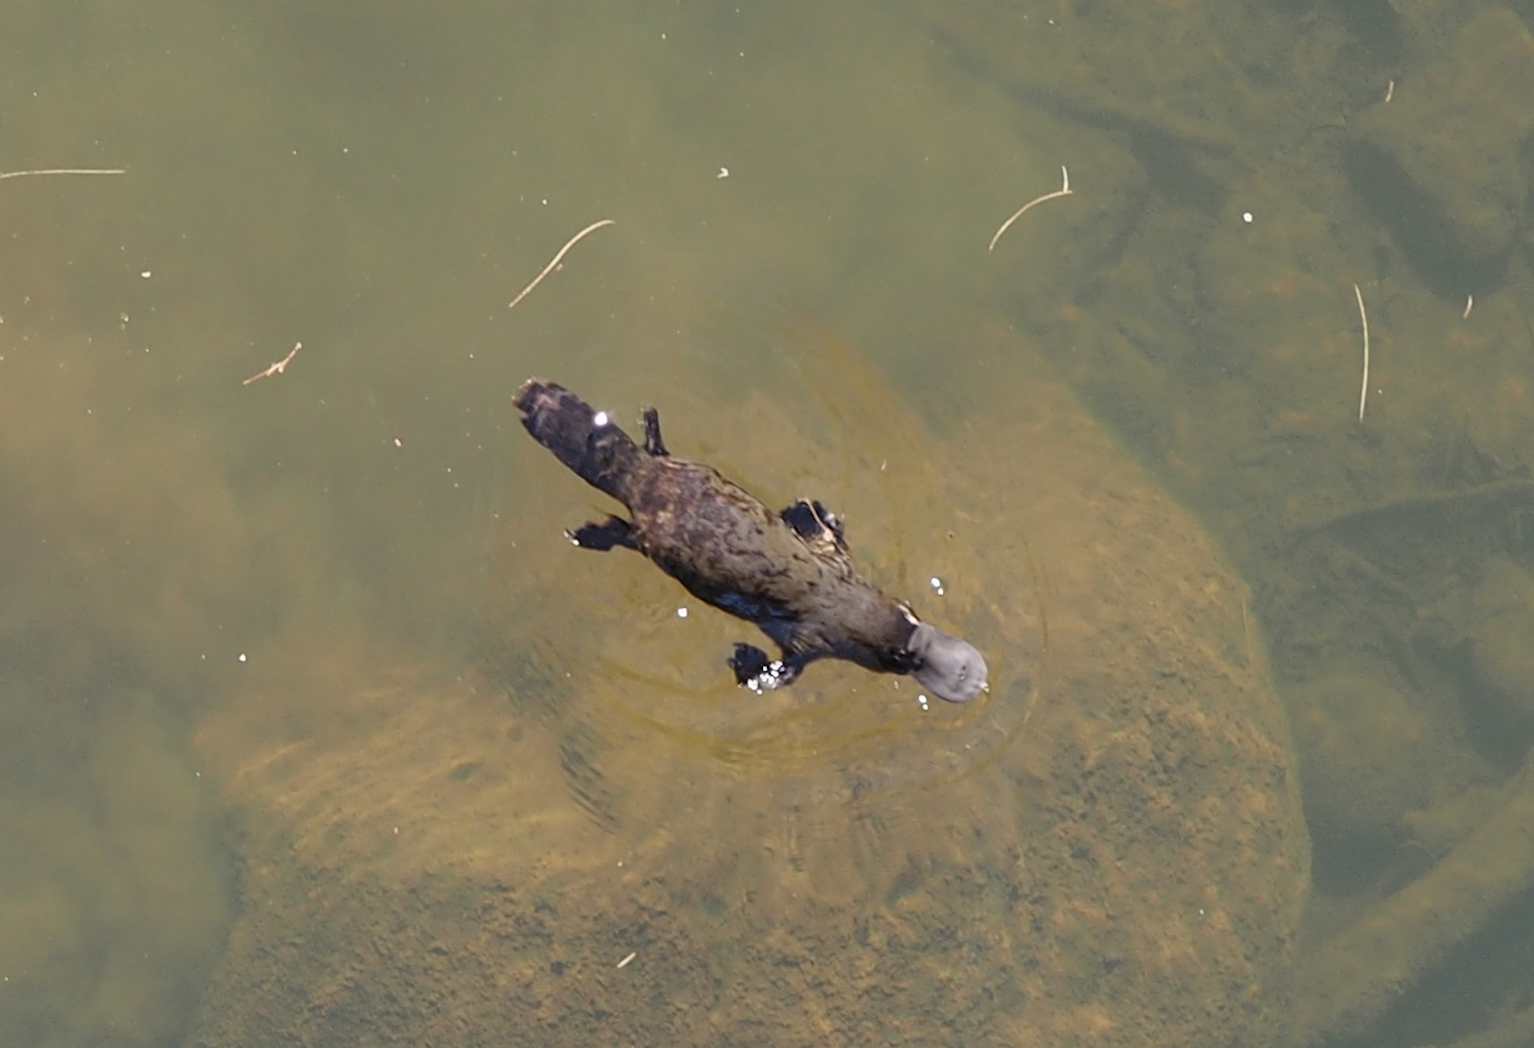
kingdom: Animalia
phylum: Chordata
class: Mammalia
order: Monotremata
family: Ornithorhynchidae
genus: Ornithorhynchus
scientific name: Ornithorhynchus anatinus
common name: Platypus
